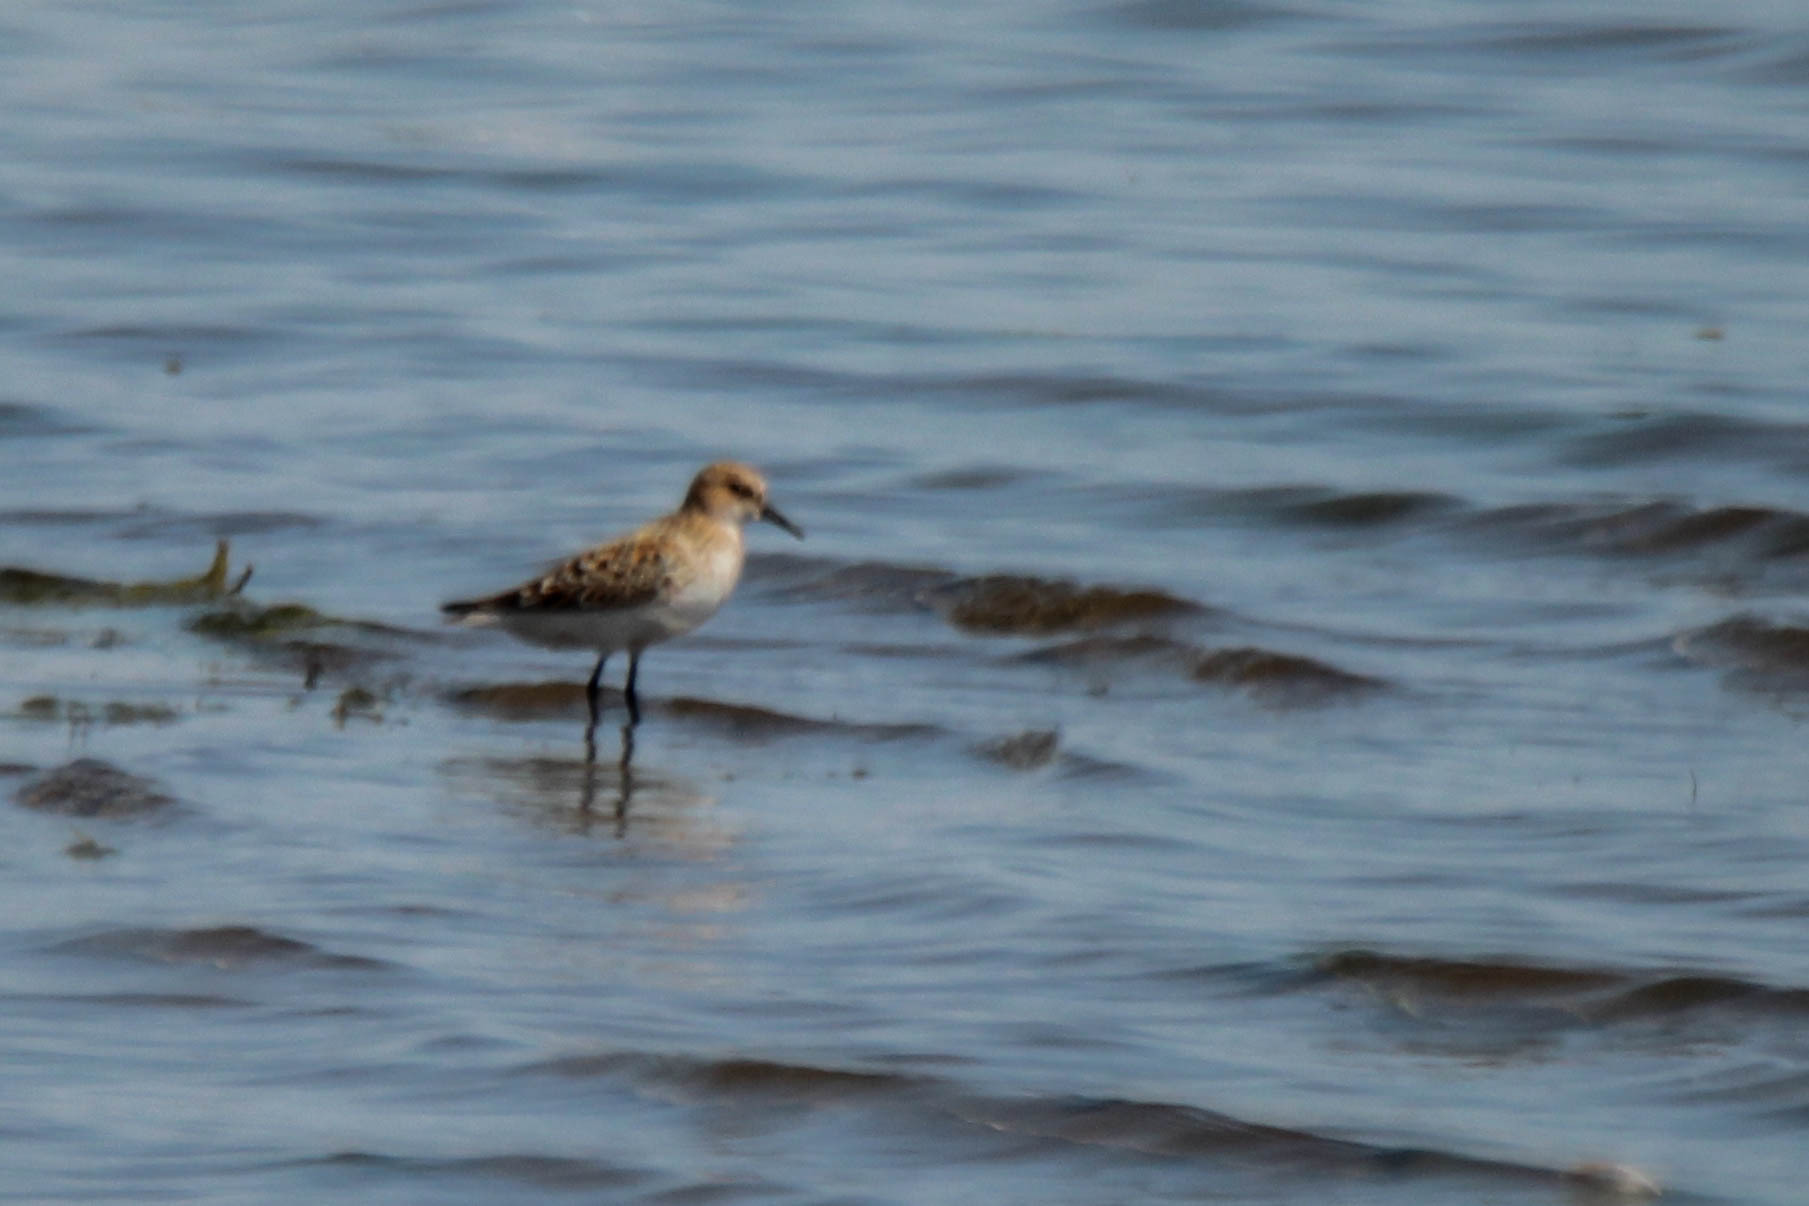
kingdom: Animalia
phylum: Chordata
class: Aves
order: Charadriiformes
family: Scolopacidae
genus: Calidris
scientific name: Calidris minuta
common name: Little stint
